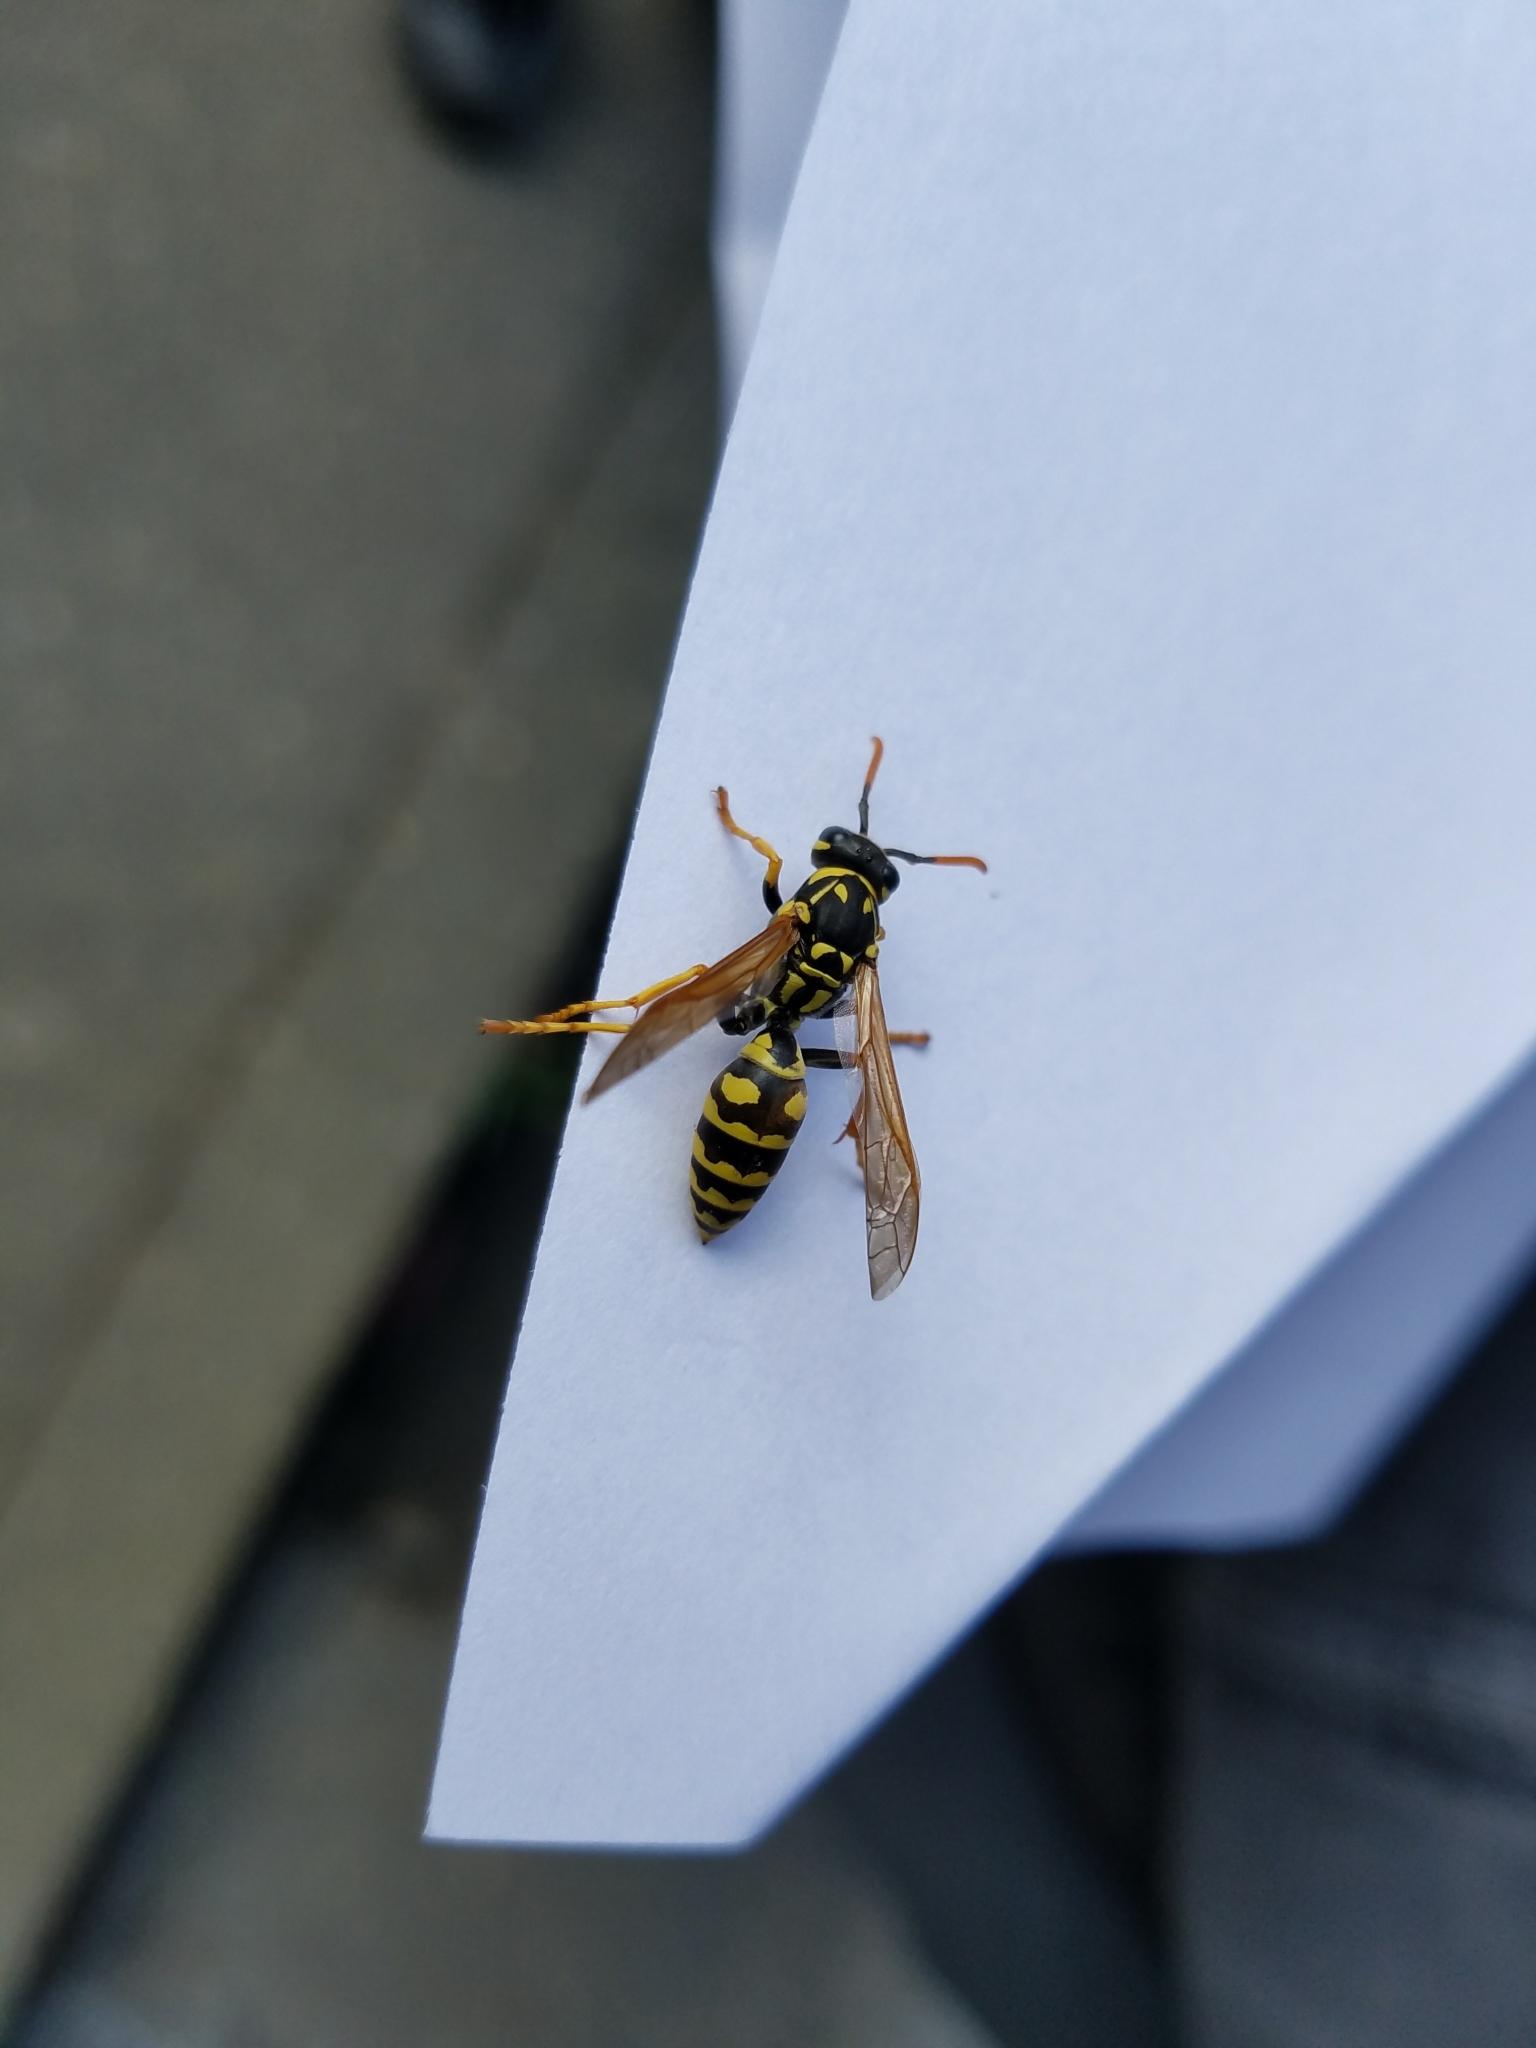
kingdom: Animalia
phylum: Arthropoda
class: Insecta
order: Hymenoptera
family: Eumenidae
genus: Polistes
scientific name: Polistes dominula
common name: Paper wasp
